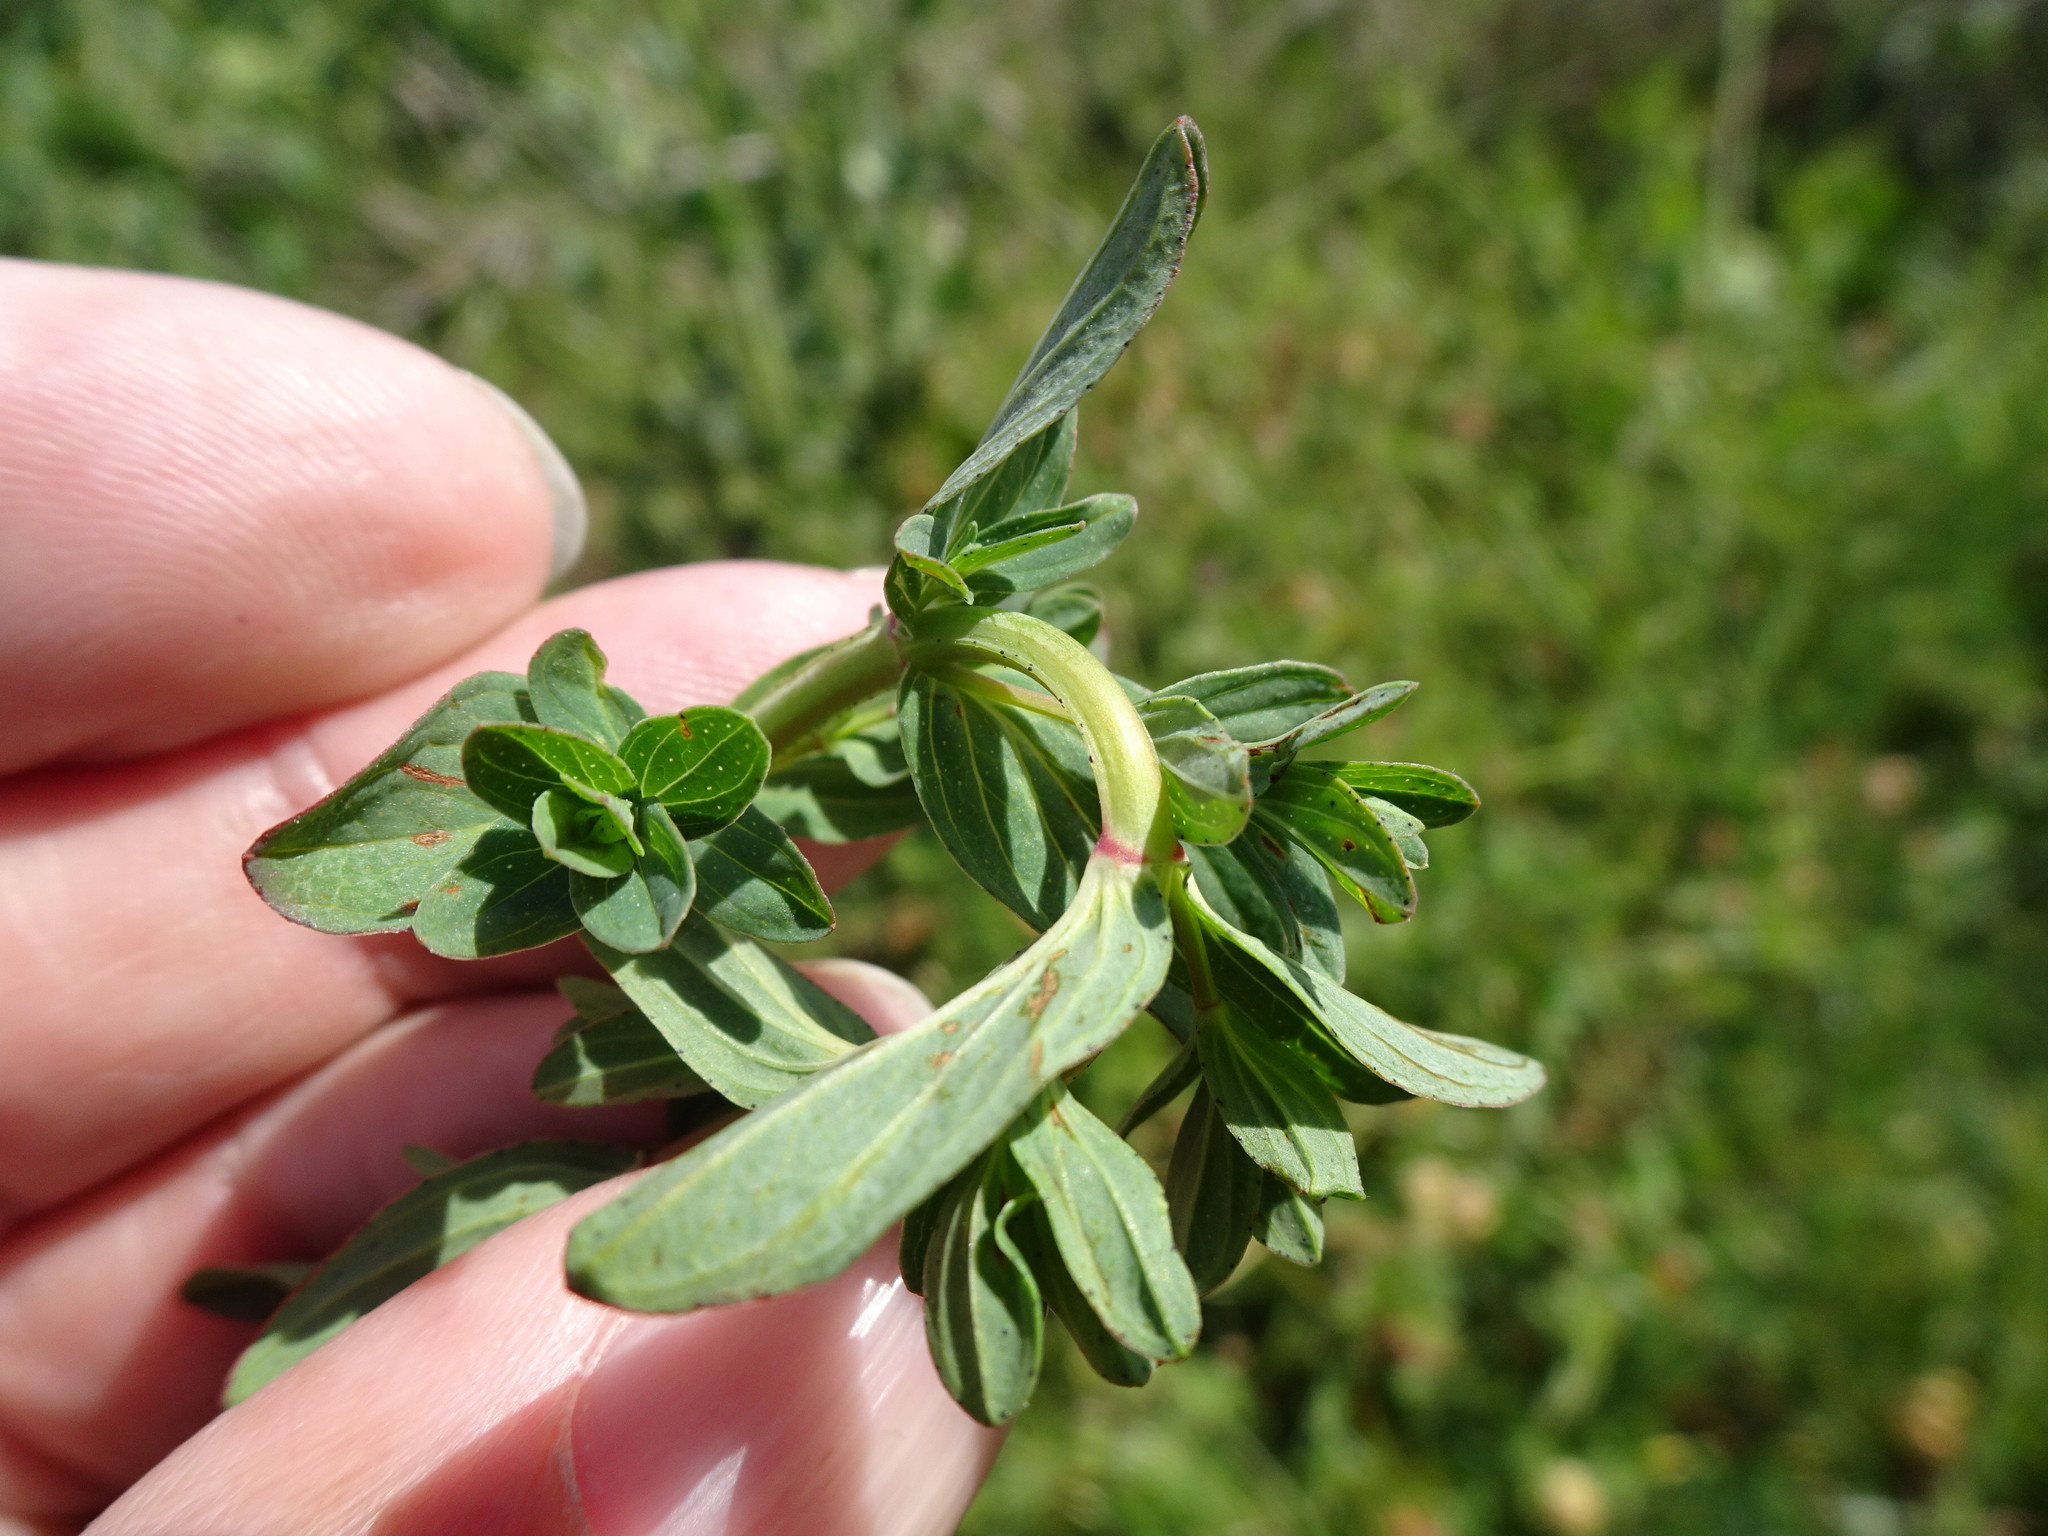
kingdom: Plantae
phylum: Tracheophyta
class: Magnoliopsida
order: Malpighiales
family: Hypericaceae
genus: Hypericum
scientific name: Hypericum perforatum
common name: Common st. johnswort
